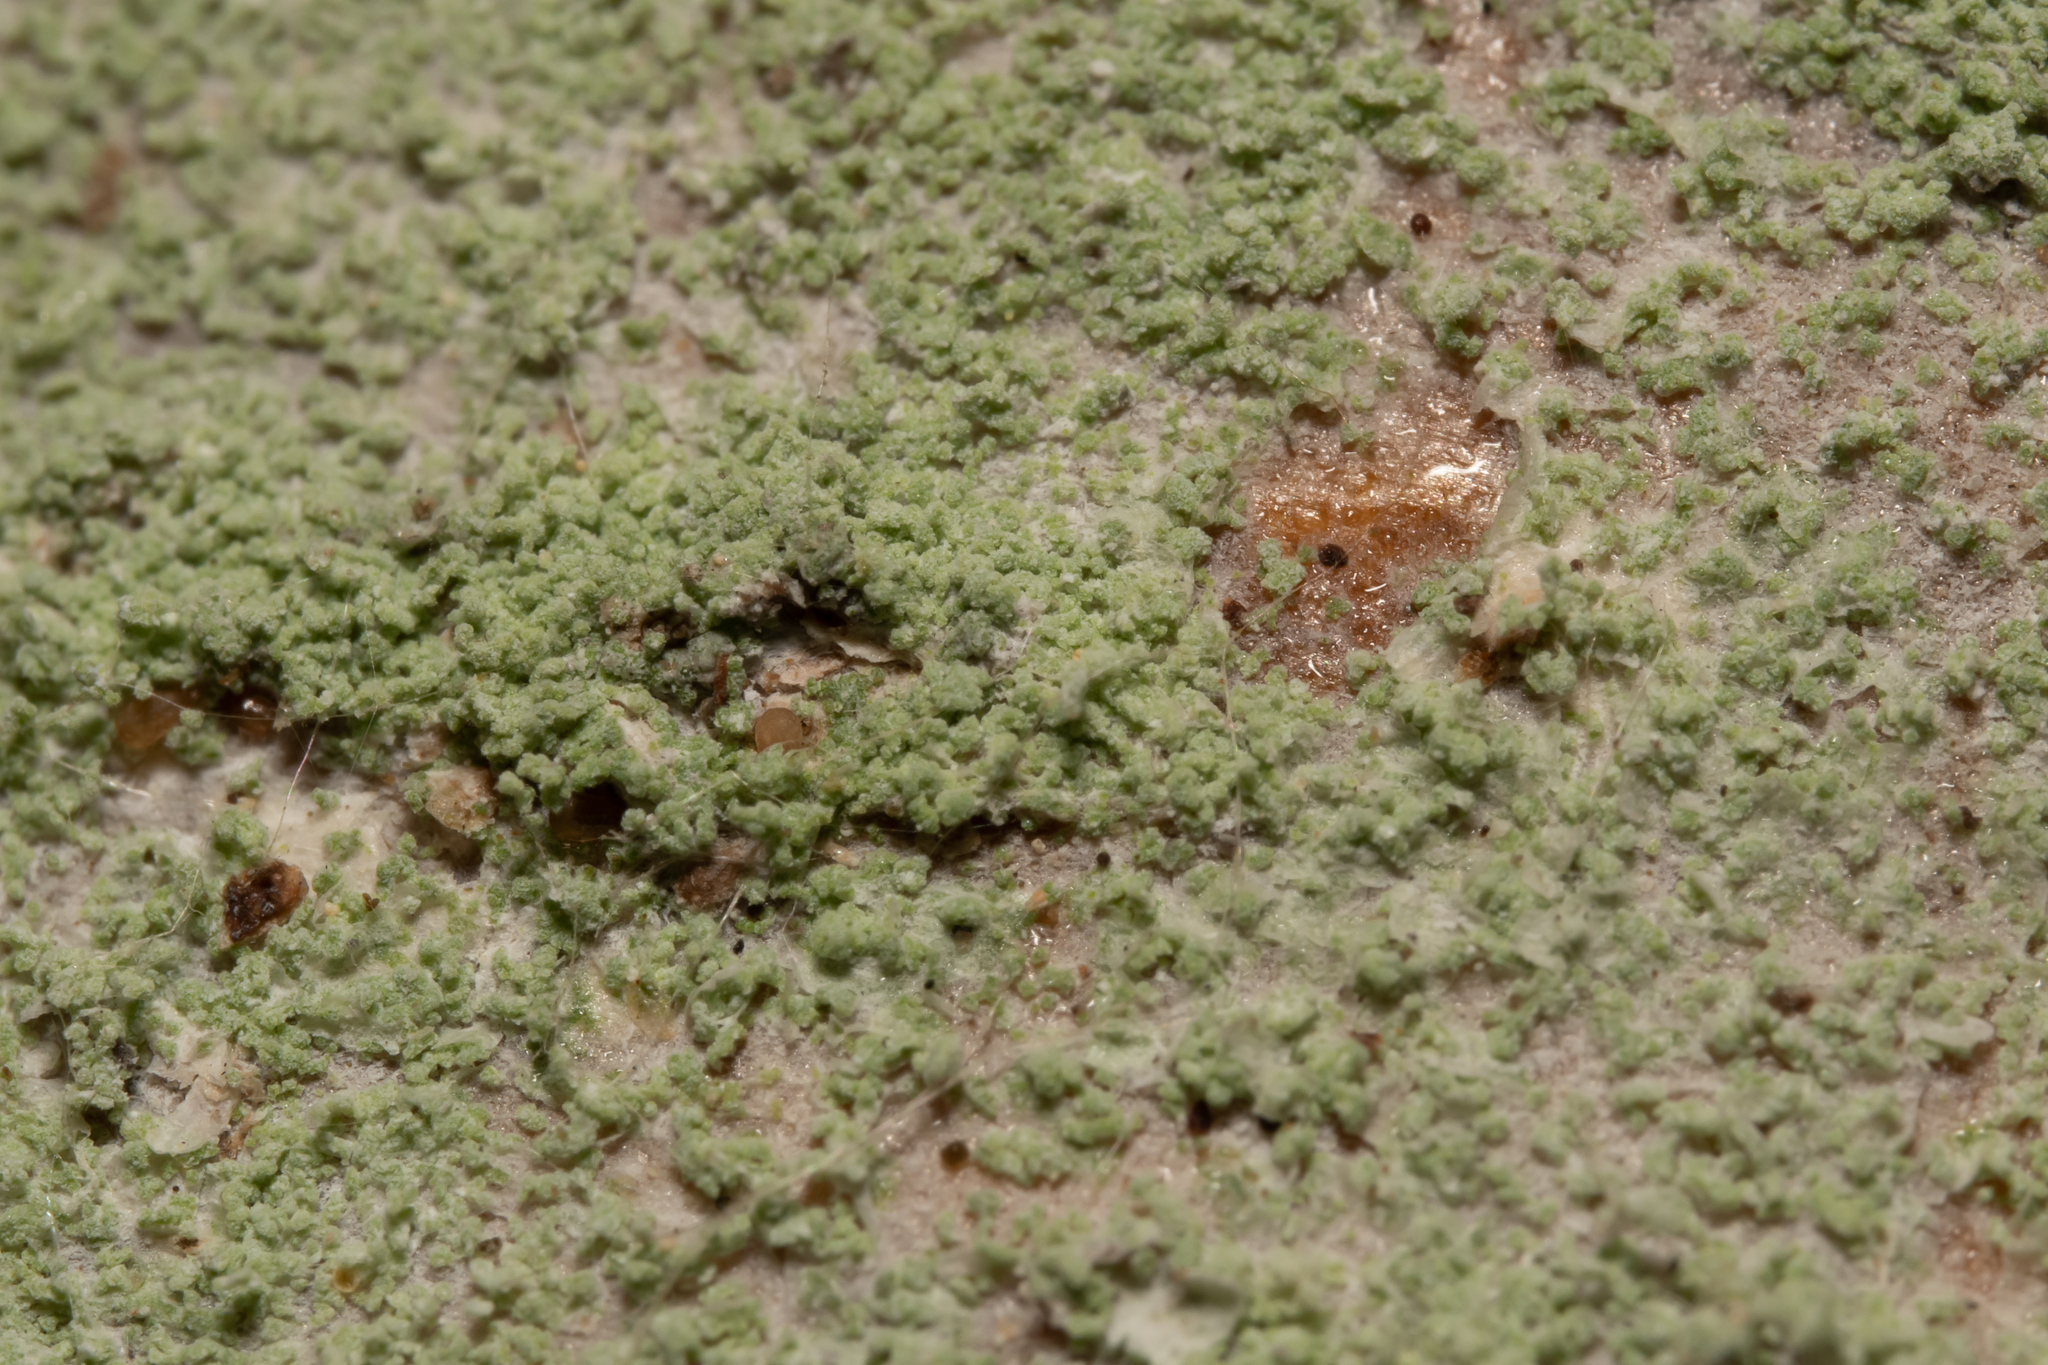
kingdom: Fungi
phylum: Ascomycota
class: Lecanoromycetes
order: Ostropales
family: Phlyctidaceae
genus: Phlyctis
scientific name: Phlyctis argena
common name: Whitewash lichen
